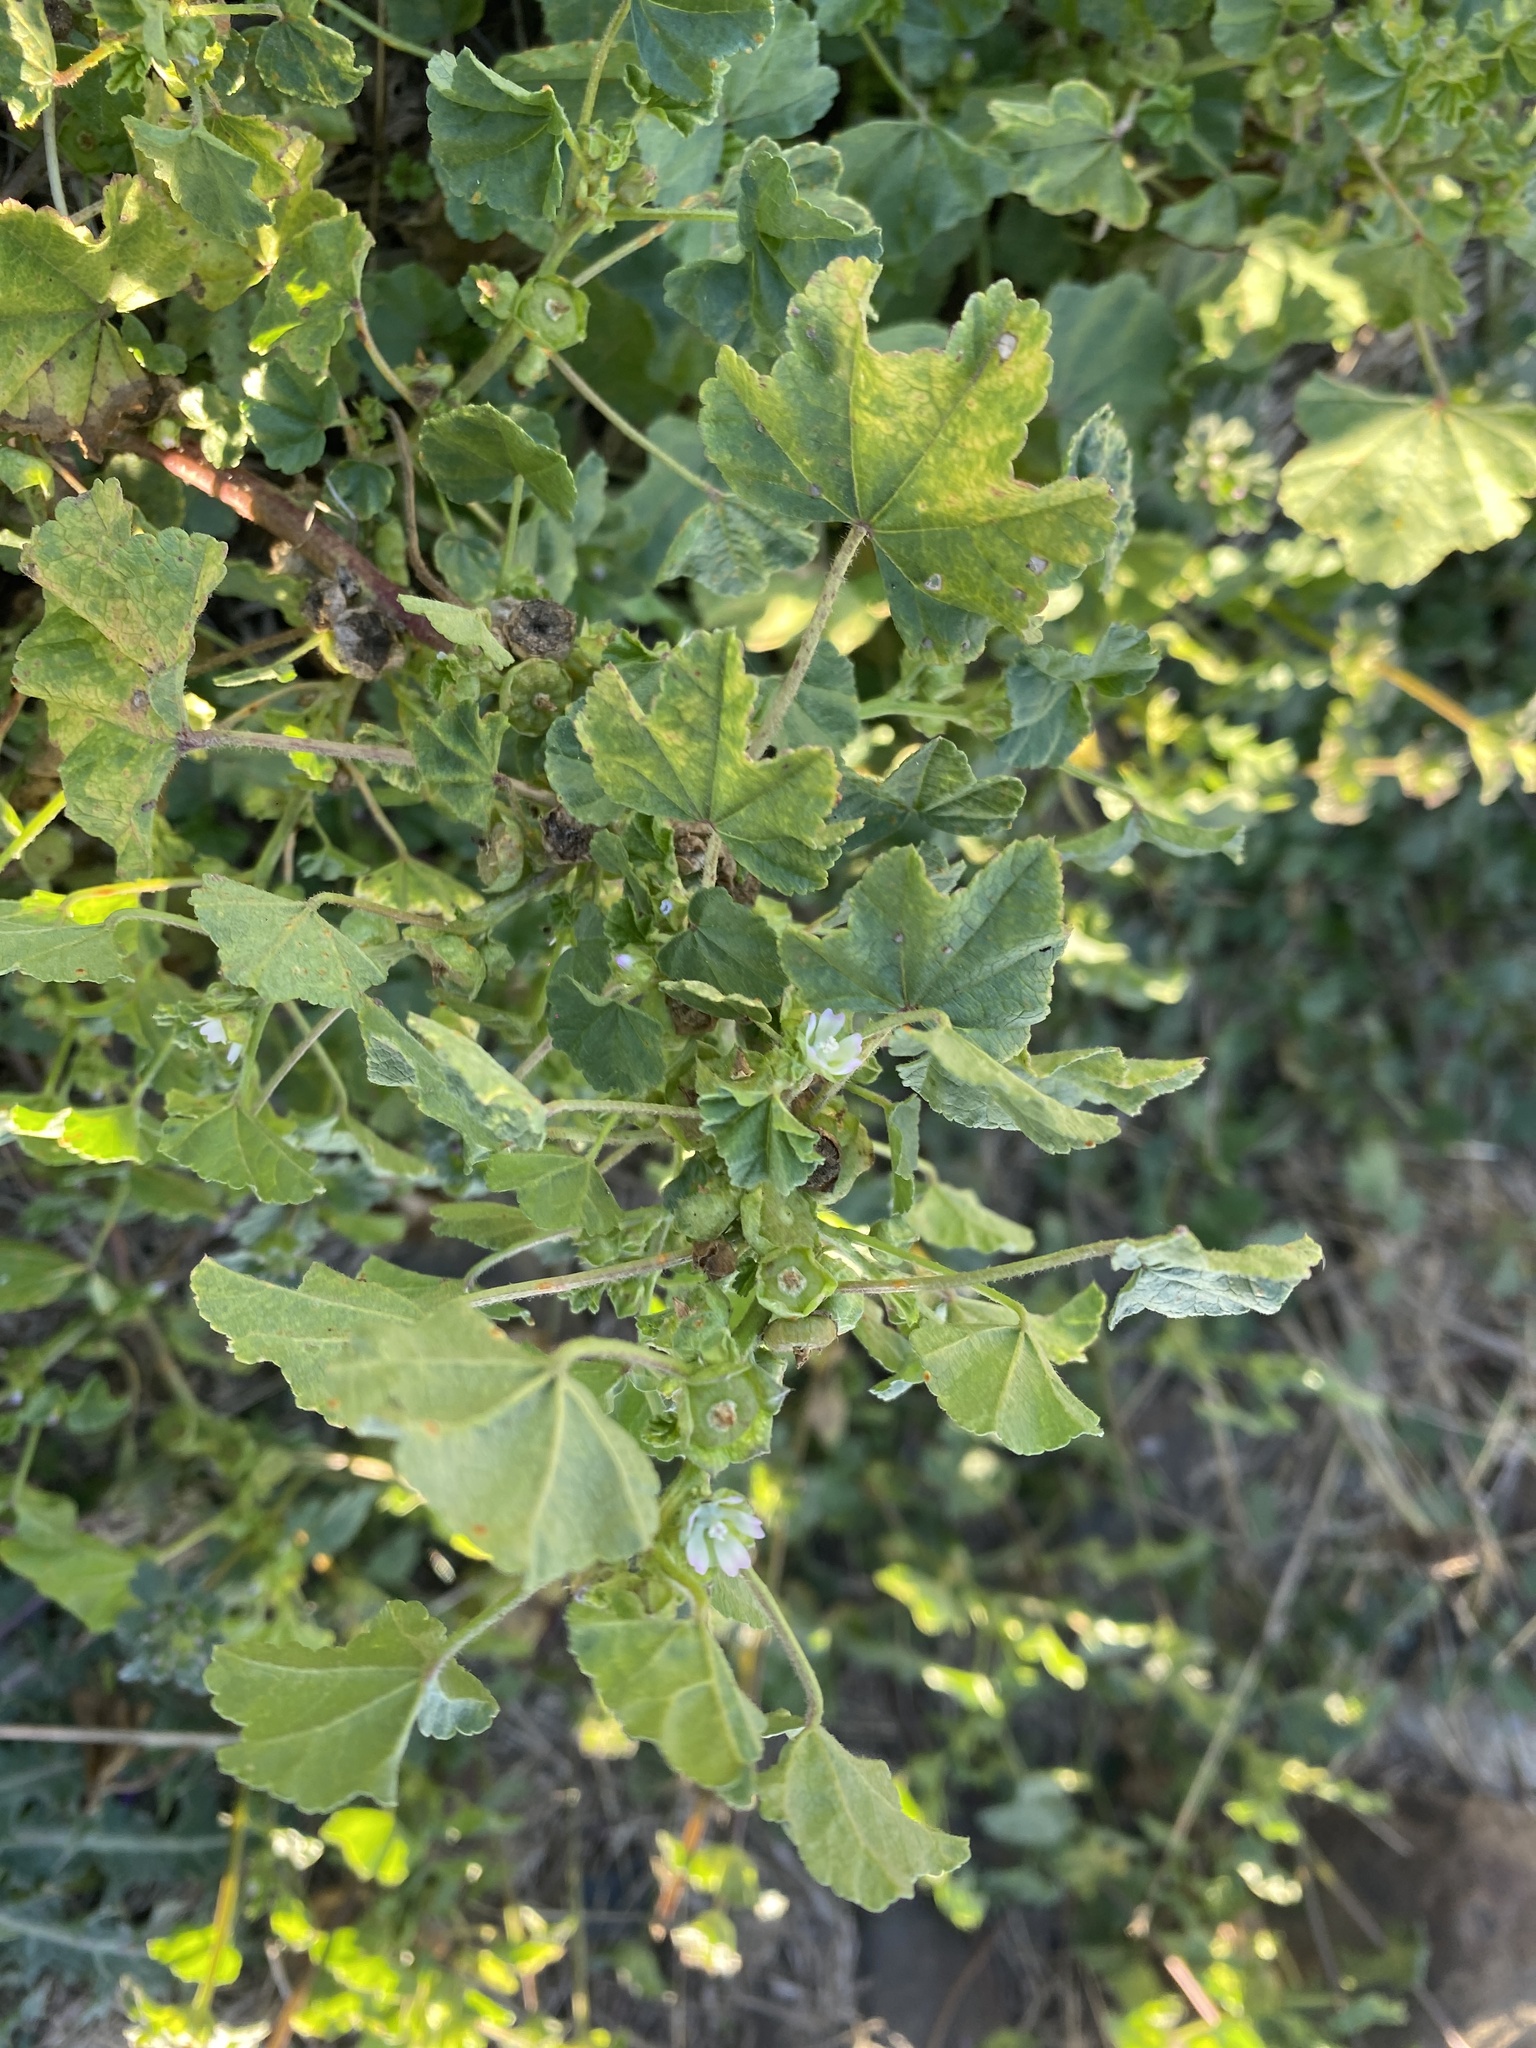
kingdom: Plantae
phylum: Tracheophyta
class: Magnoliopsida
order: Malvales
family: Malvaceae
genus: Malva
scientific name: Malva parviflora
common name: Least mallow
